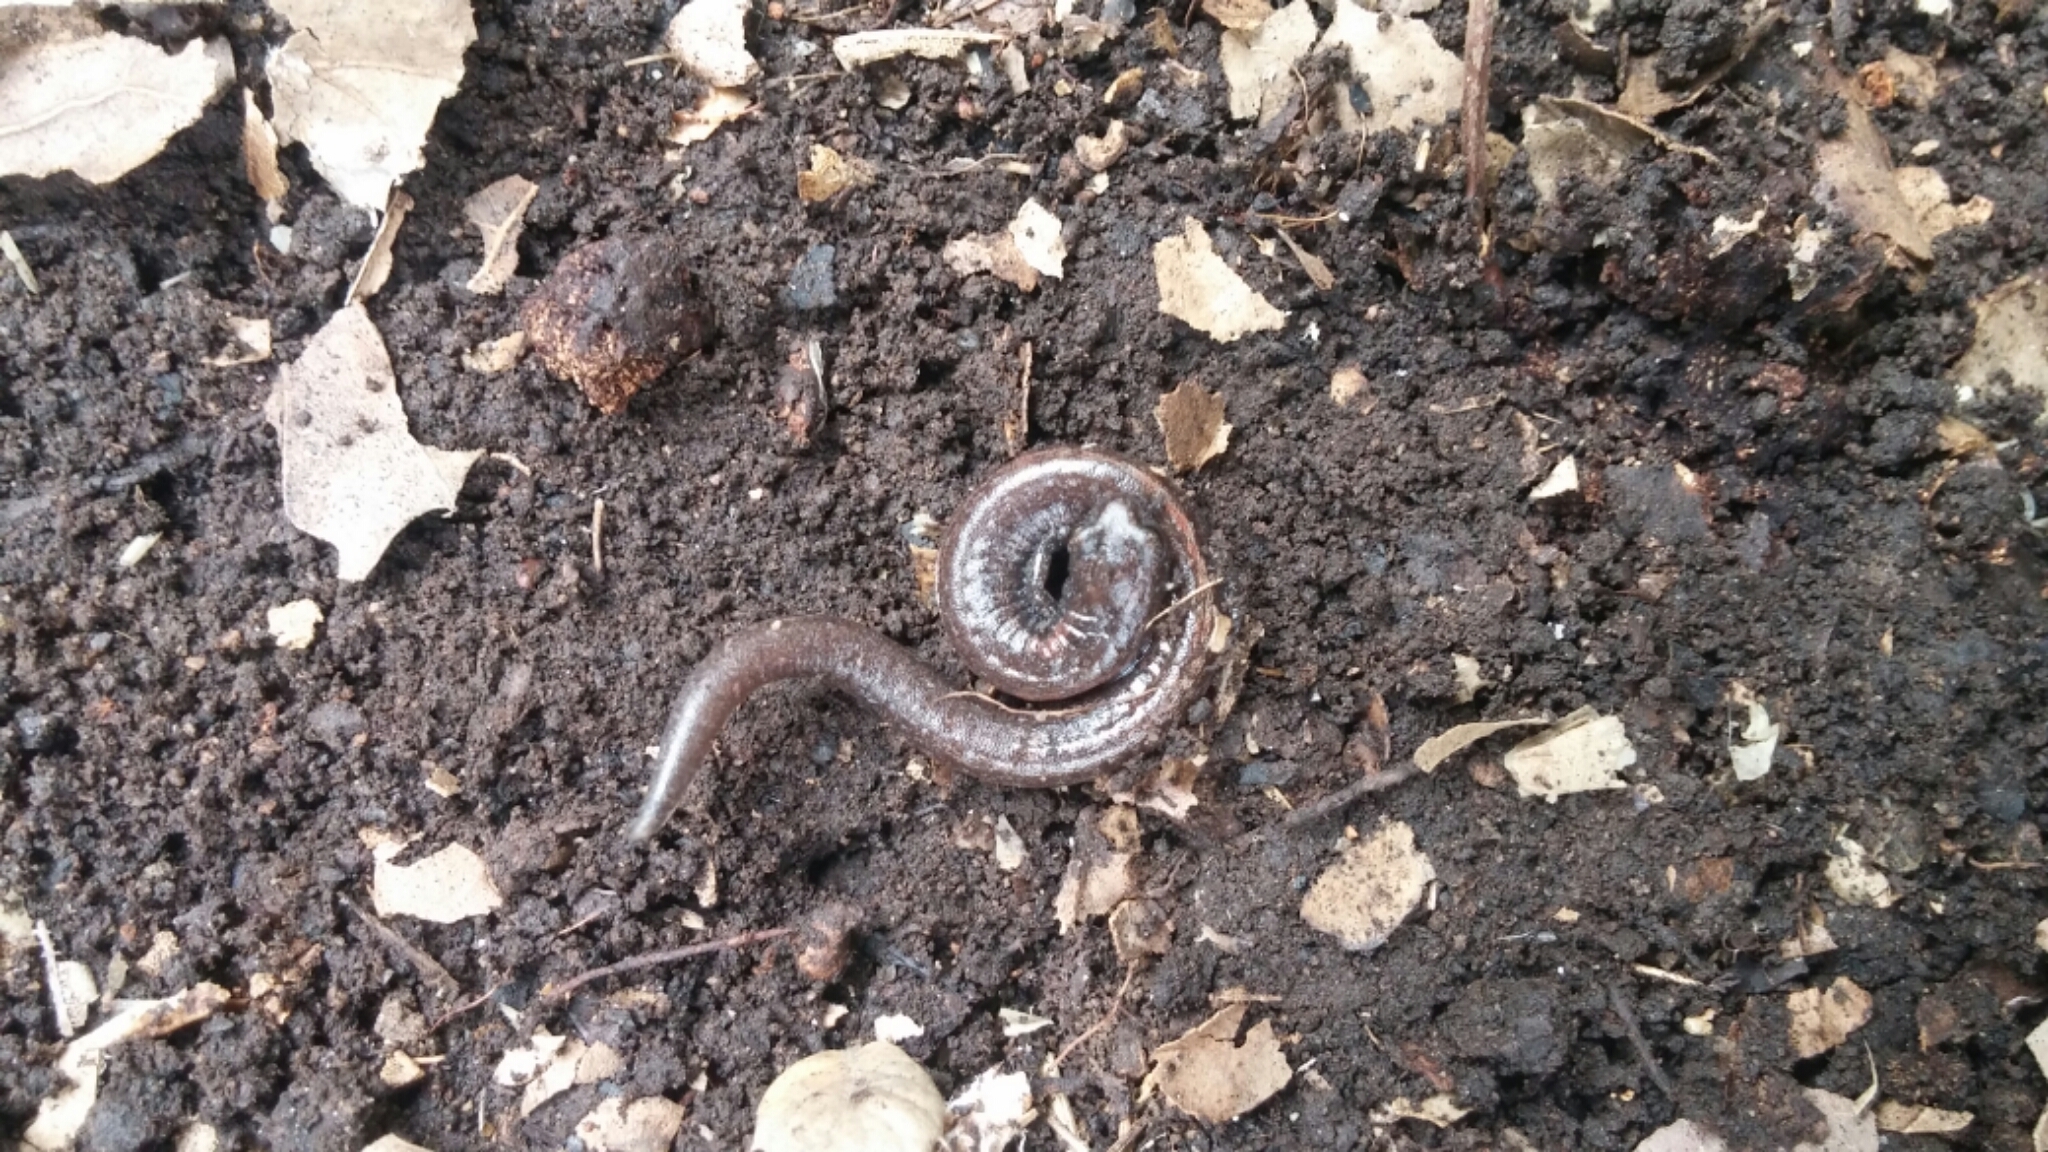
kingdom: Animalia
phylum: Chordata
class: Amphibia
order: Caudata
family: Plethodontidae
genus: Batrachoseps
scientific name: Batrachoseps major
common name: Garden slender salamander
